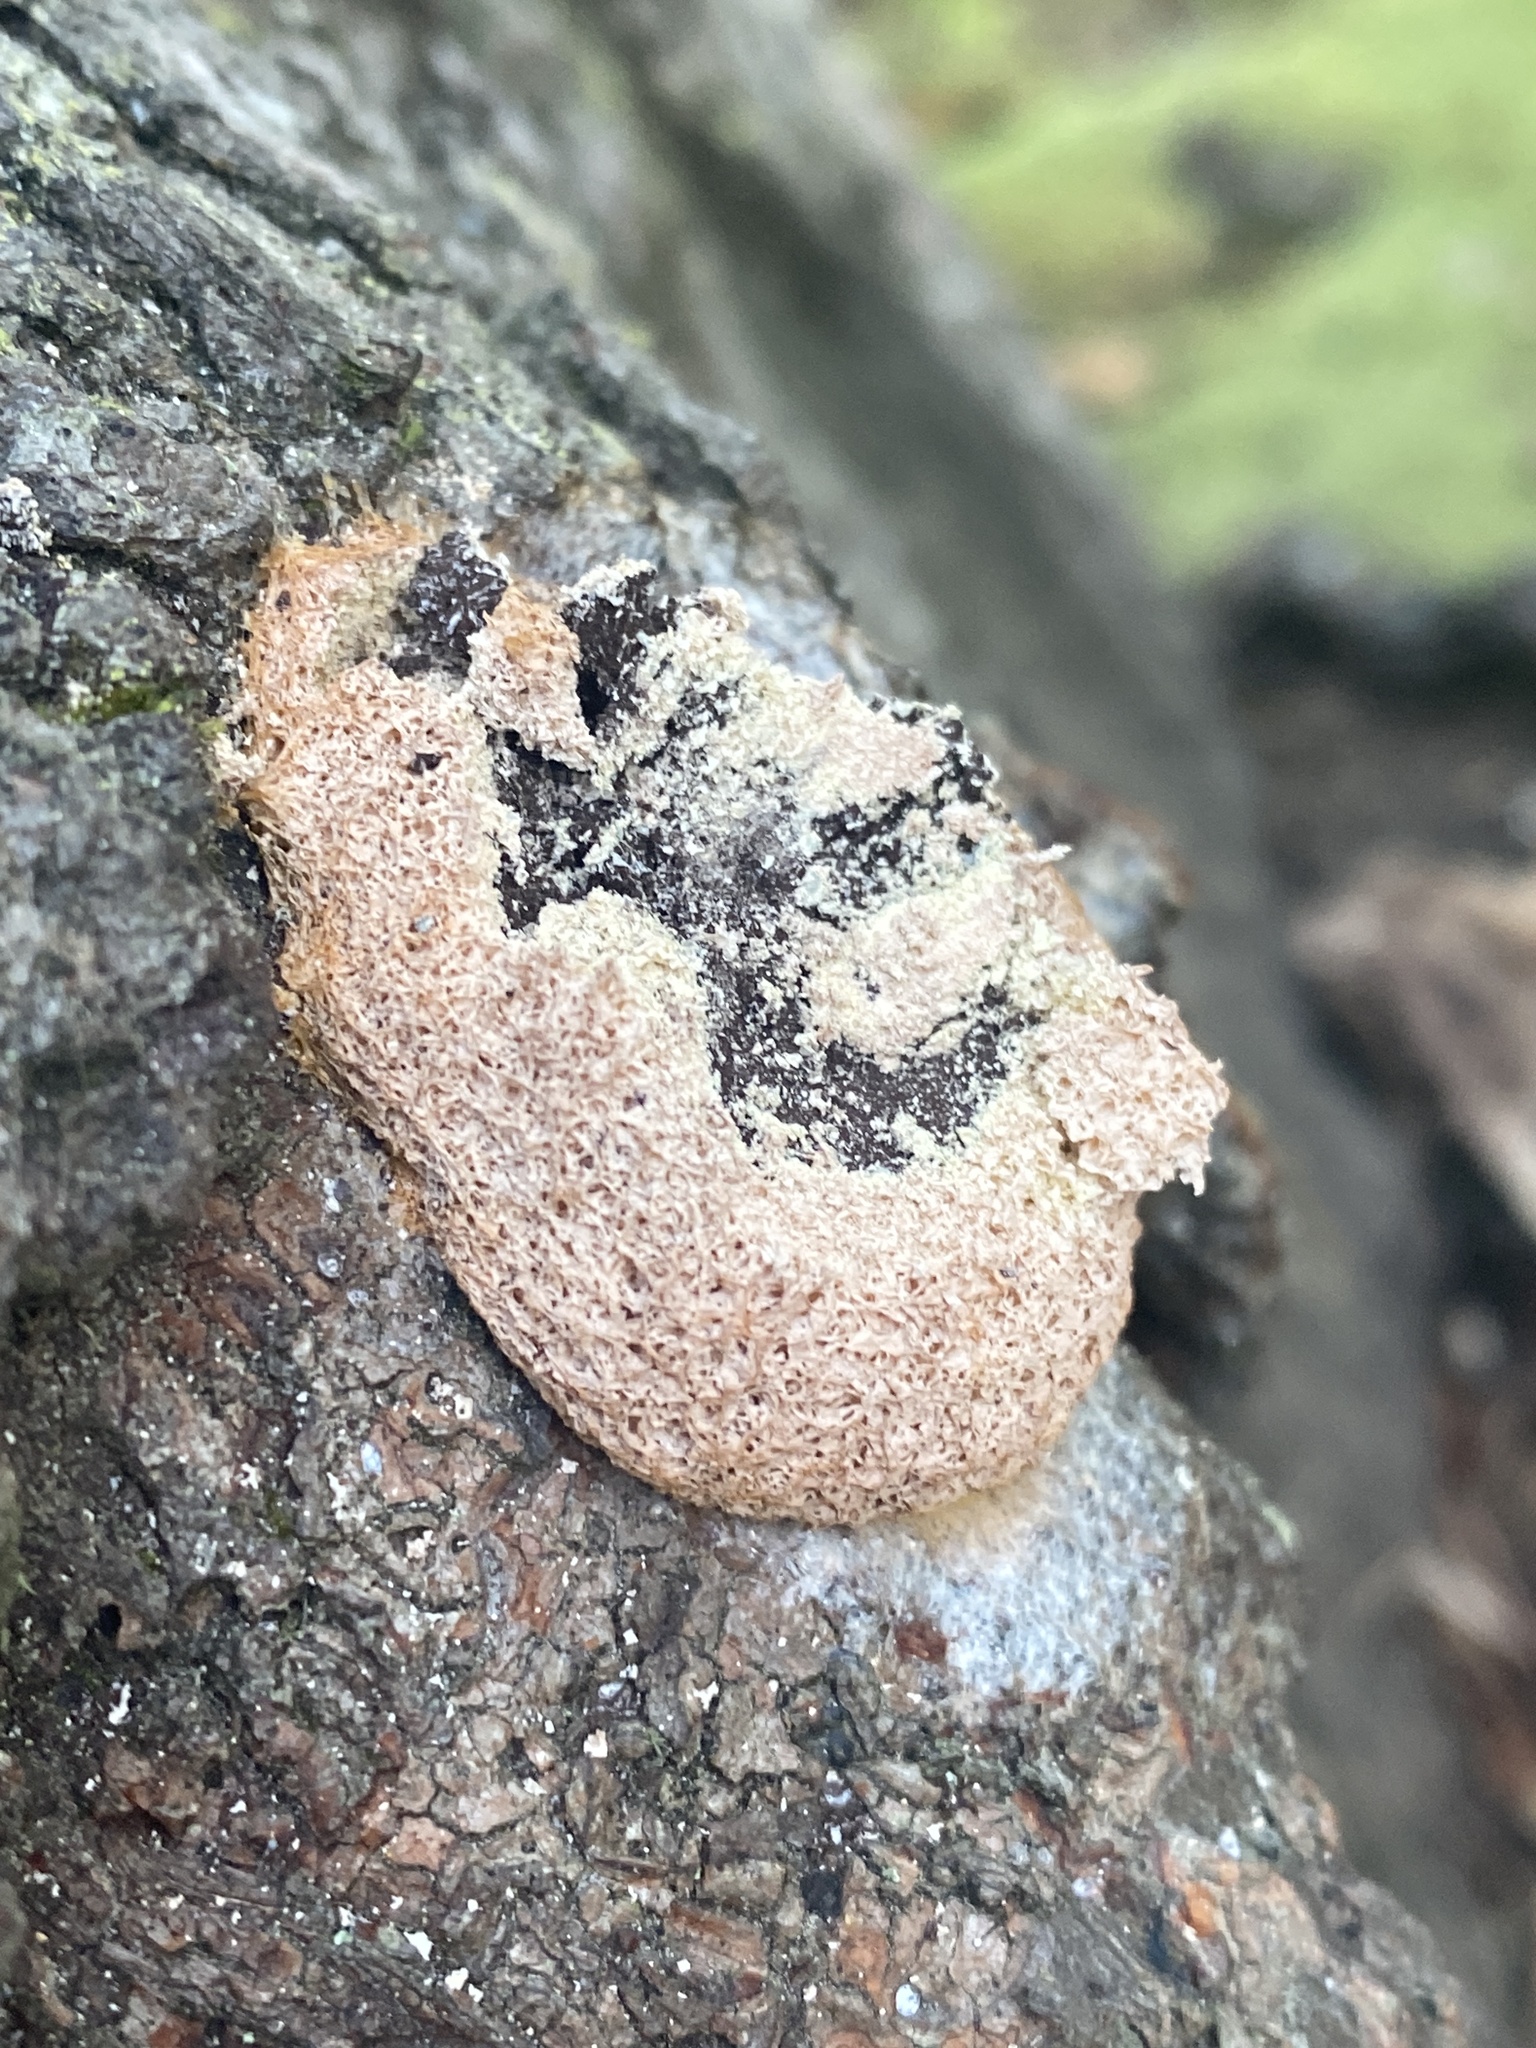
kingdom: Protozoa
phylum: Mycetozoa
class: Myxomycetes
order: Physarales
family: Physaraceae
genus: Fuligo
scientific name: Fuligo septica
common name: Dog vomit slime mold
